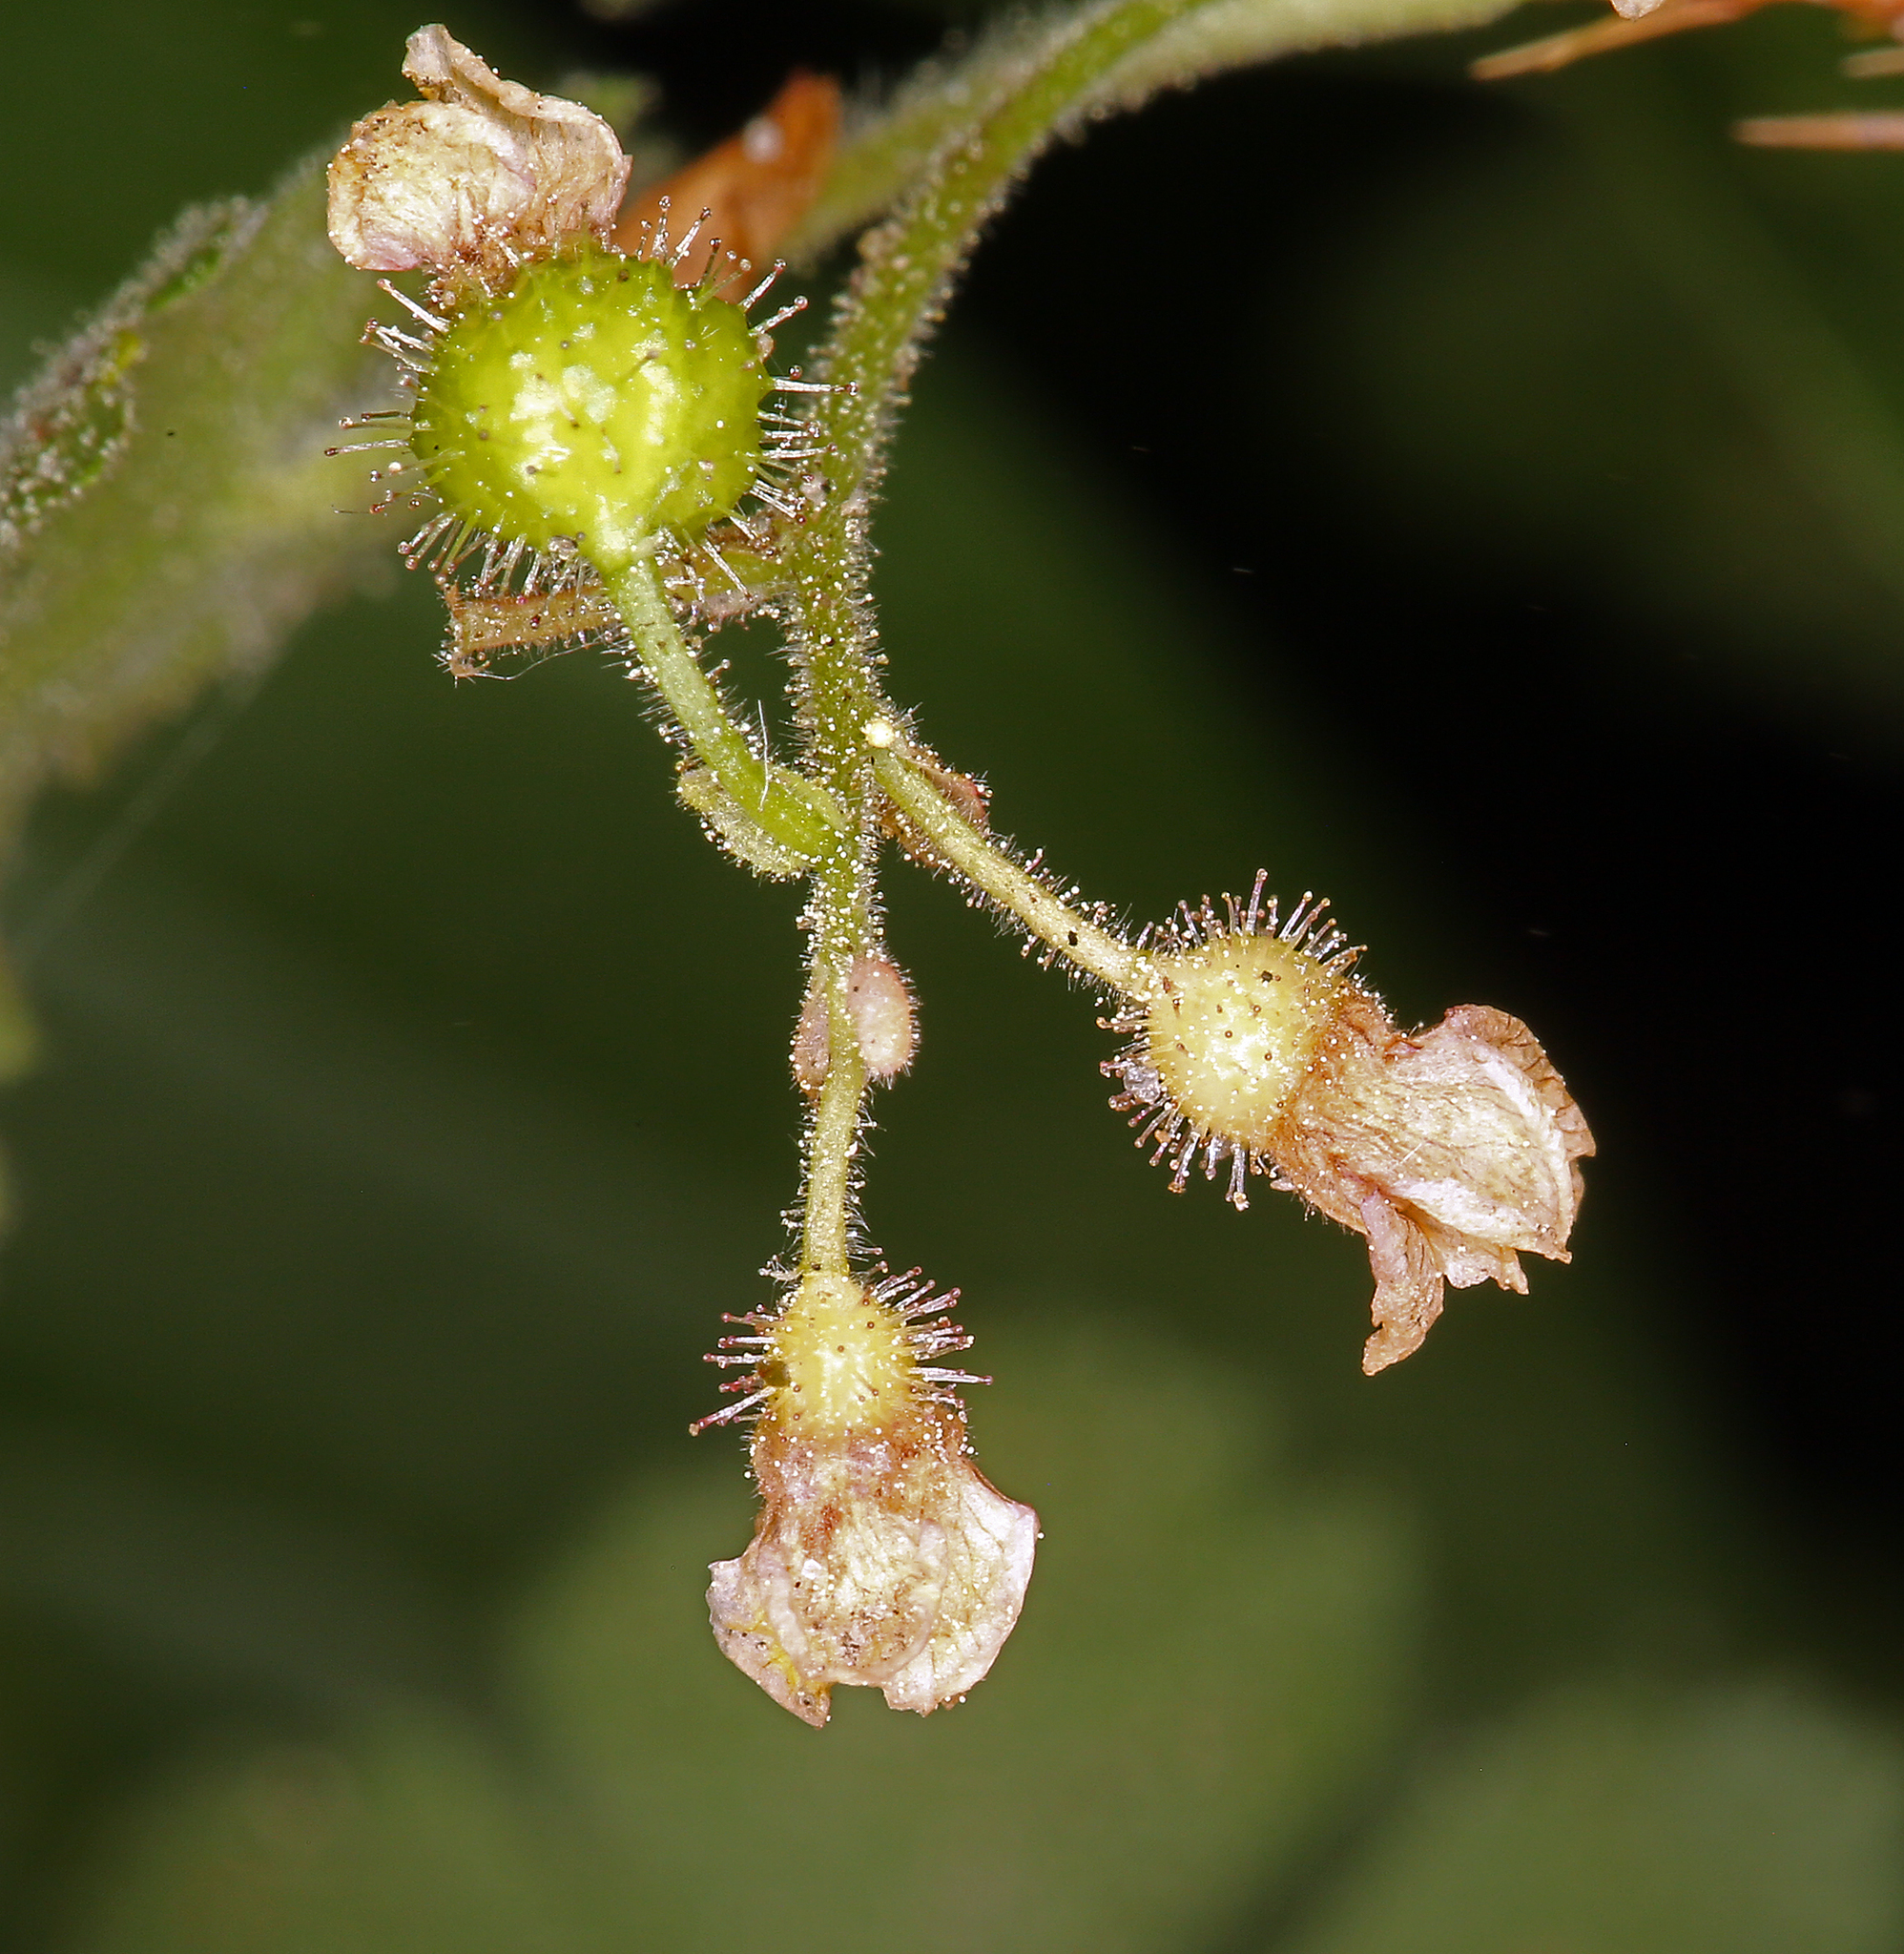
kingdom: Plantae
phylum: Tracheophyta
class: Magnoliopsida
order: Saxifragales
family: Grossulariaceae
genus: Ribes
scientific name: Ribes montigenum
